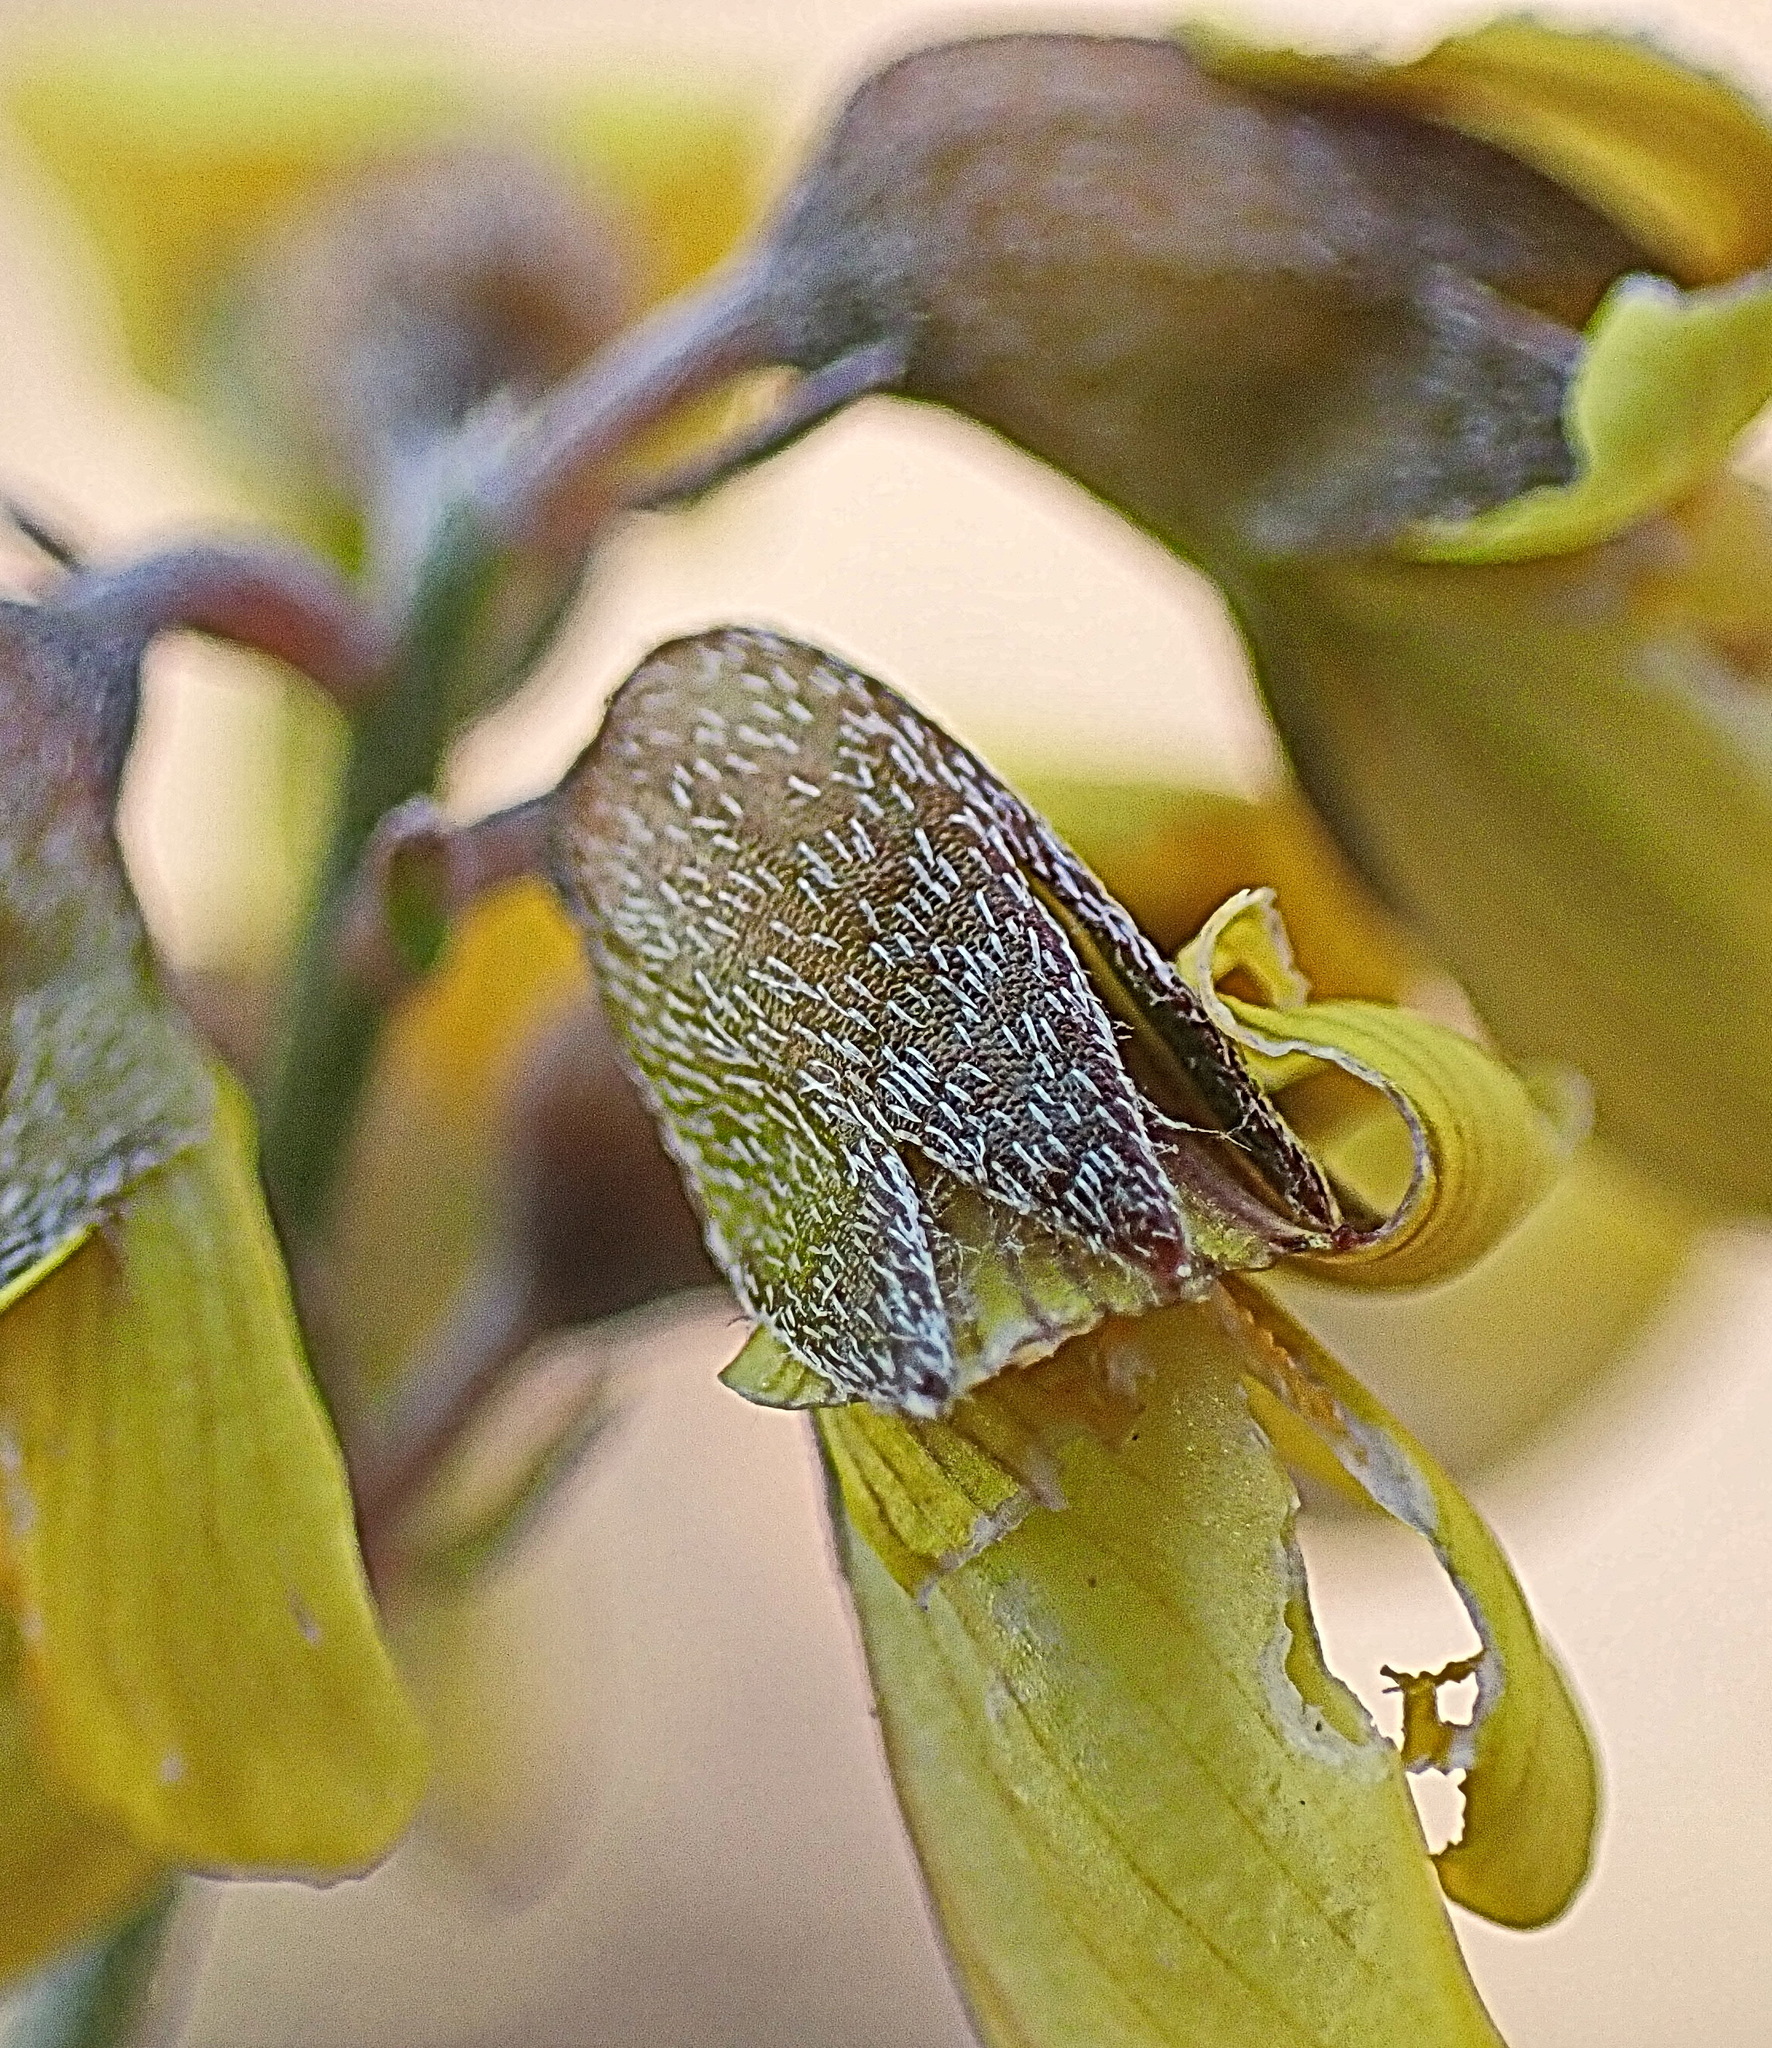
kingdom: Plantae
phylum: Tracheophyta
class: Magnoliopsida
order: Fabales
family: Fabaceae
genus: Lotononis
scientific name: Lotononis acocksii
